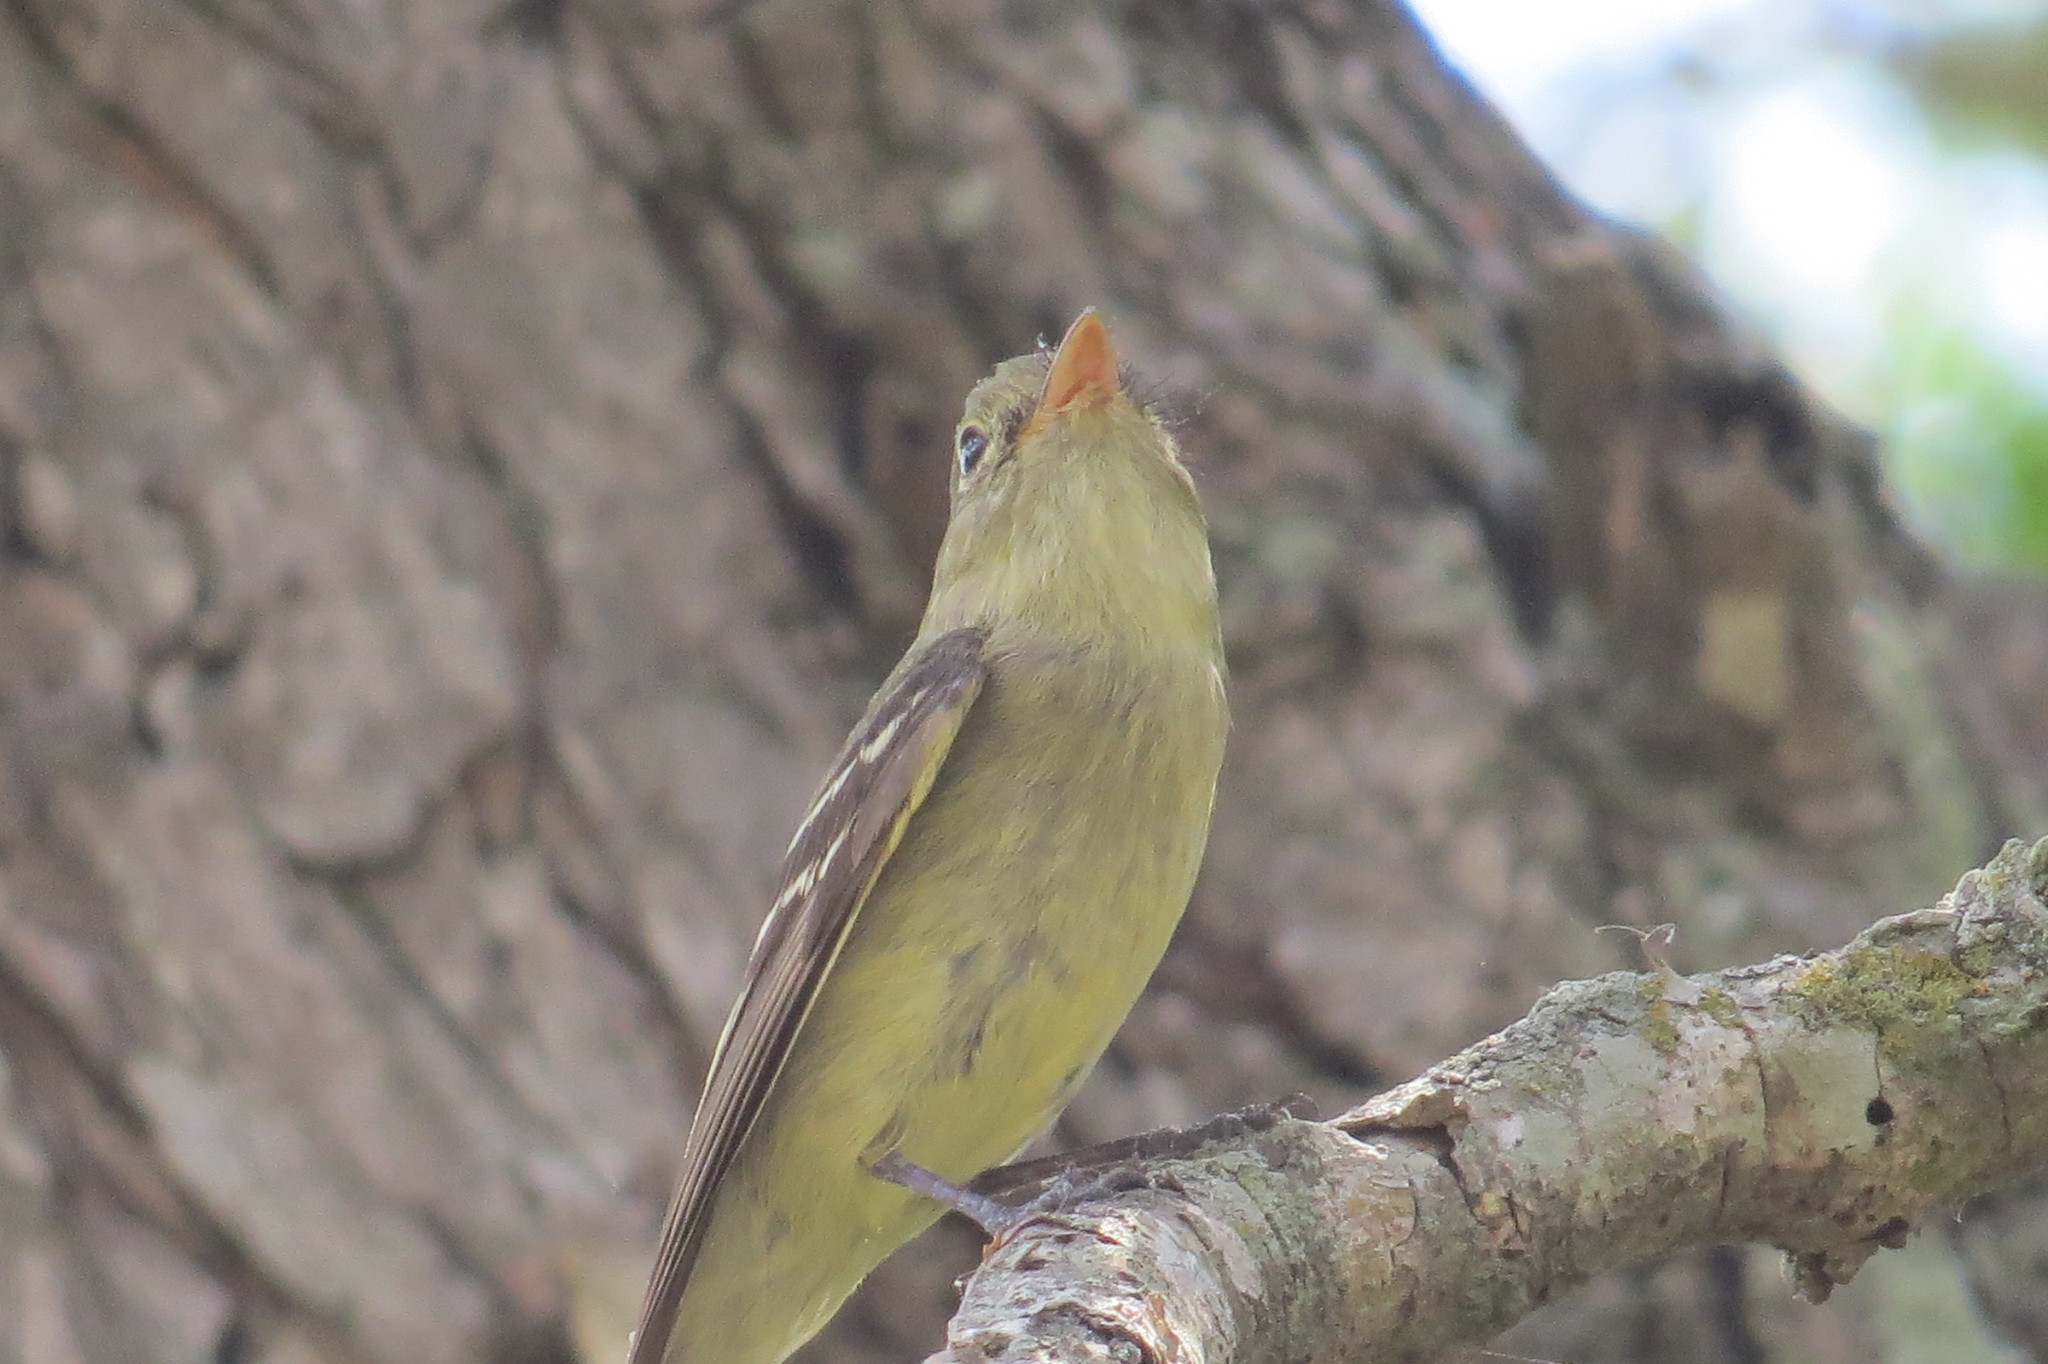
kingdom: Animalia
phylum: Chordata
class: Aves
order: Passeriformes
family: Tyrannidae
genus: Empidonax
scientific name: Empidonax flaviventris
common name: Yellow-bellied flycatcher
